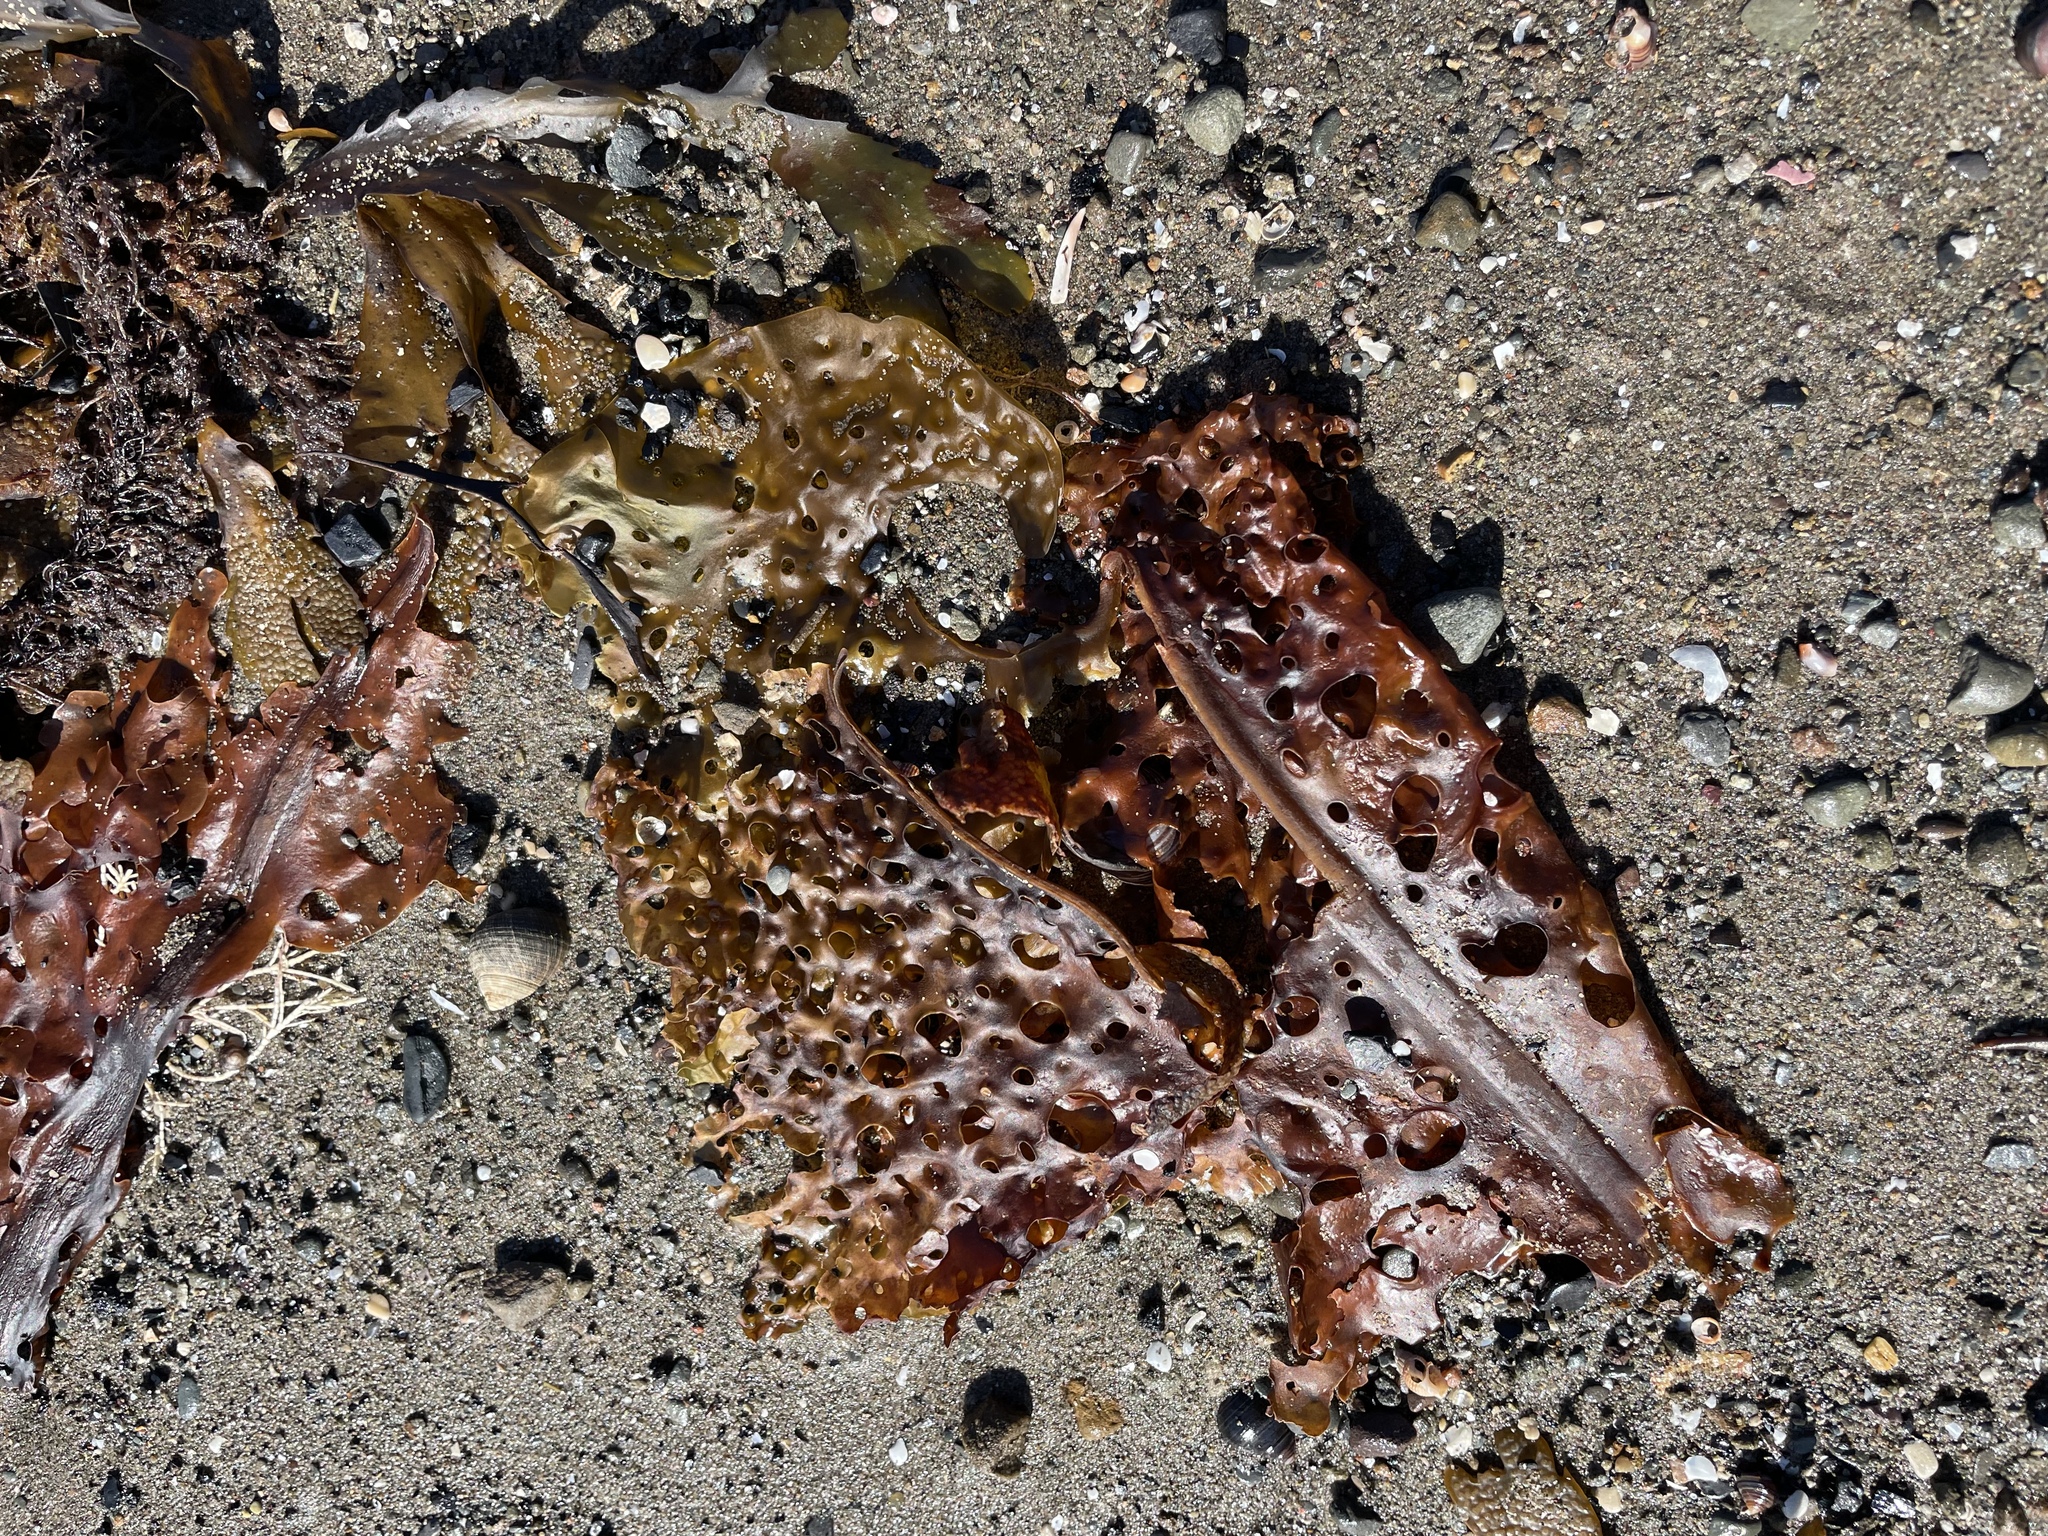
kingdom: Chromista
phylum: Ochrophyta
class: Phaeophyceae
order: Laminariales
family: Costariaceae
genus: Agarum
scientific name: Agarum clathratum
